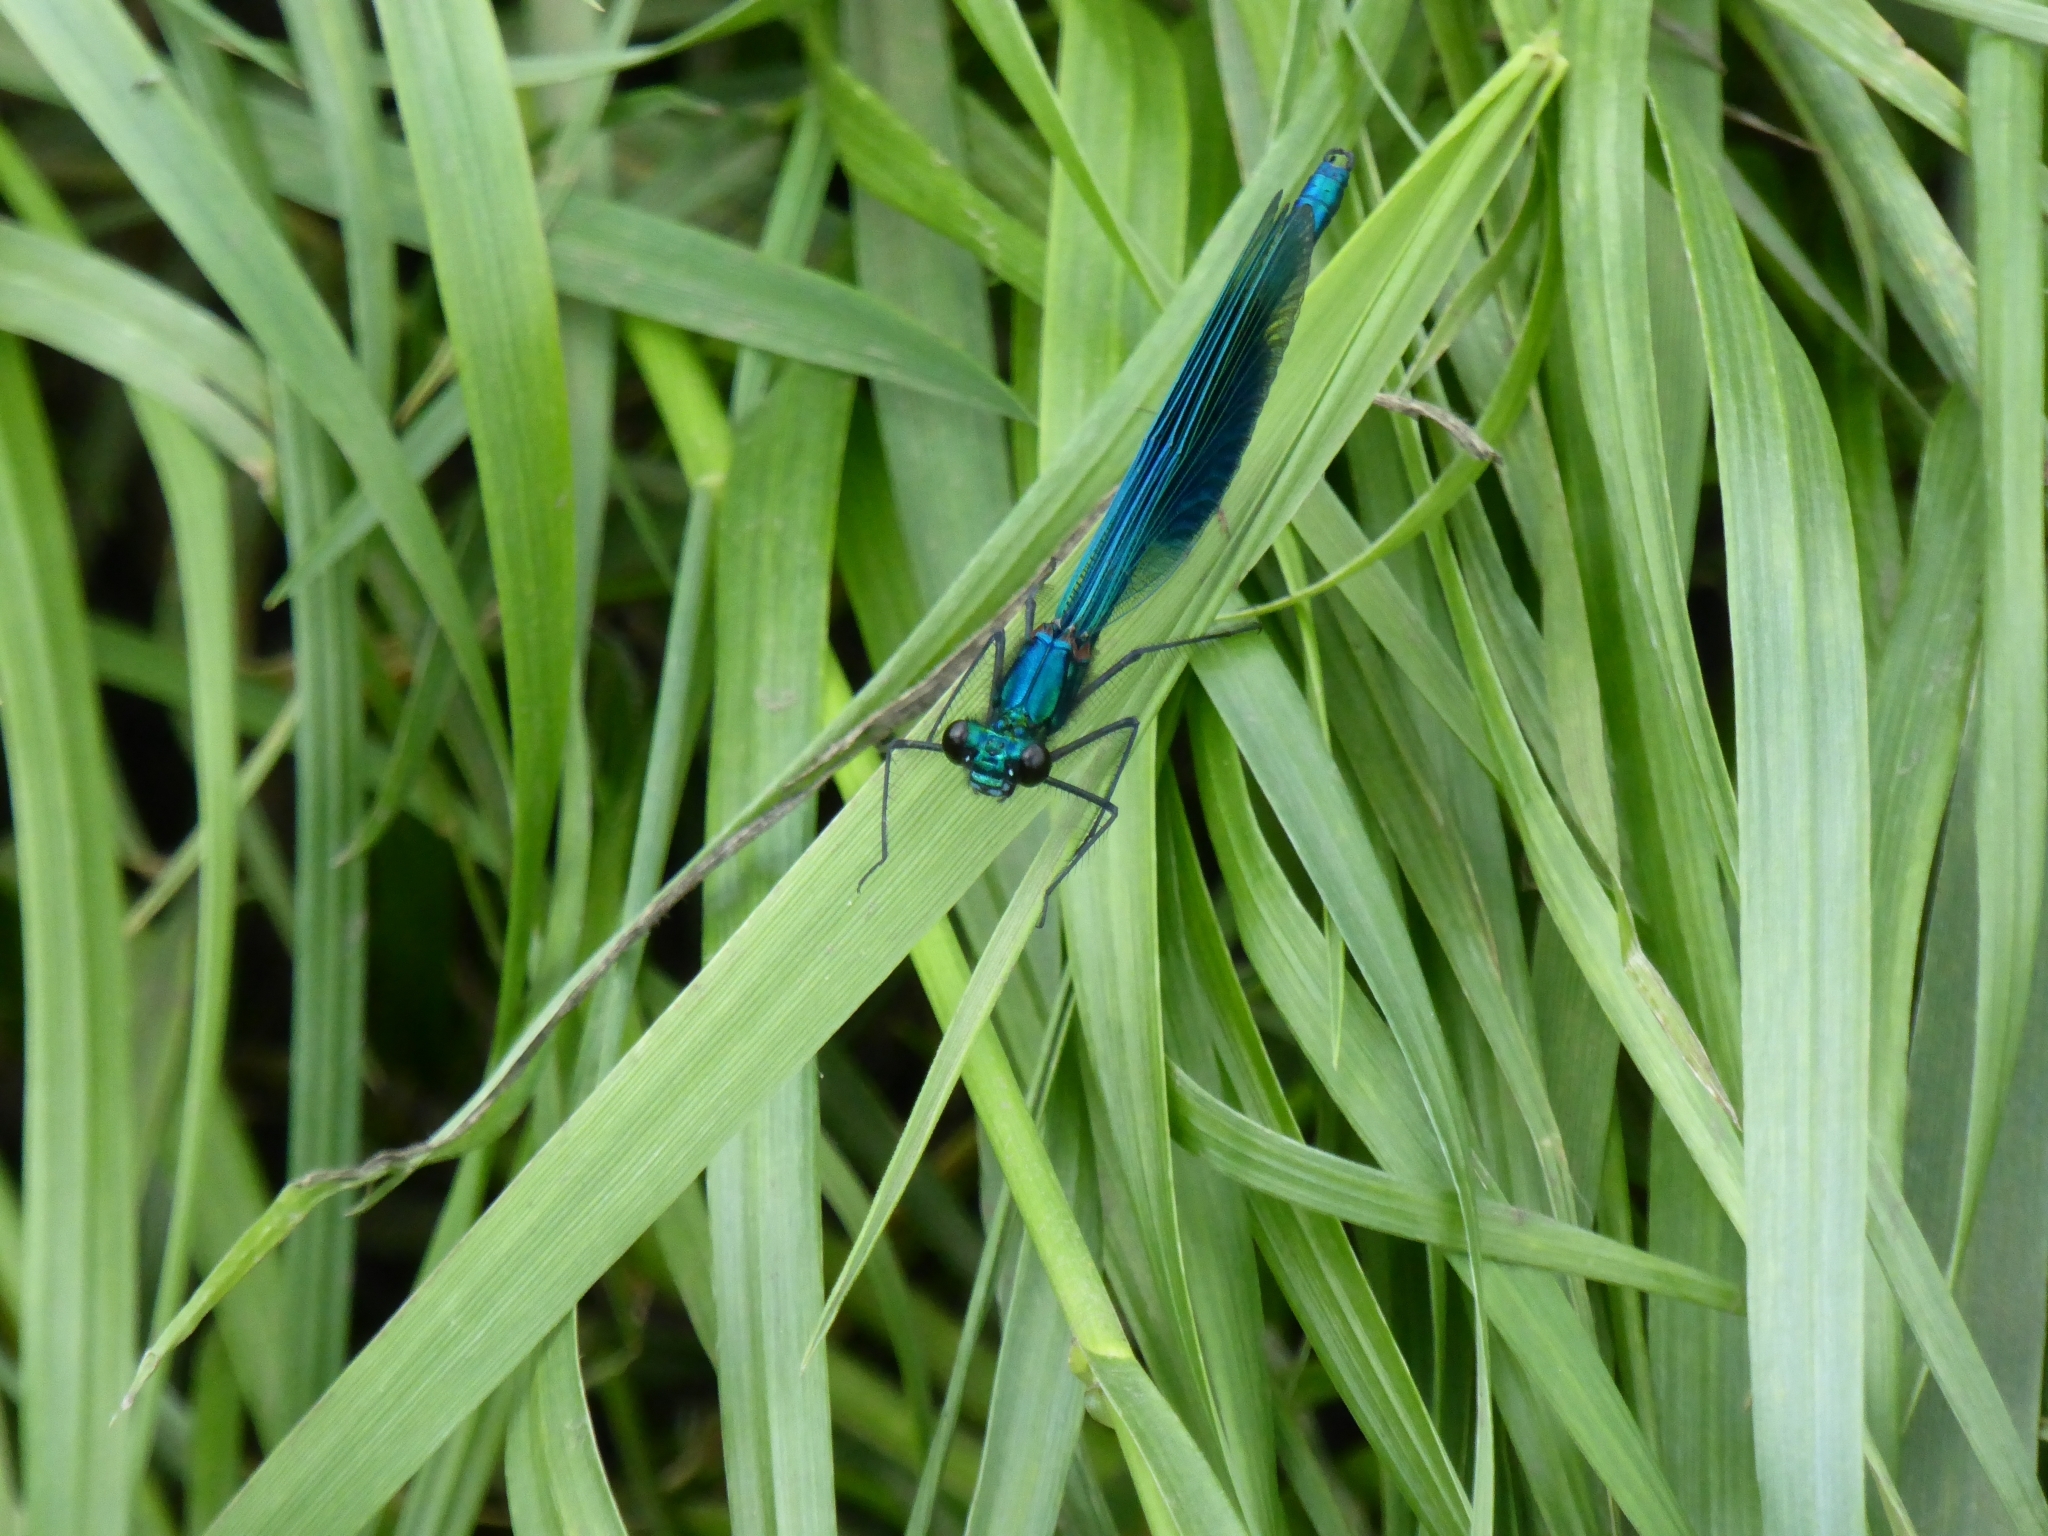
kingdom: Animalia
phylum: Arthropoda
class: Insecta
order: Odonata
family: Calopterygidae
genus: Calopteryx
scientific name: Calopteryx splendens
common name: Banded demoiselle
